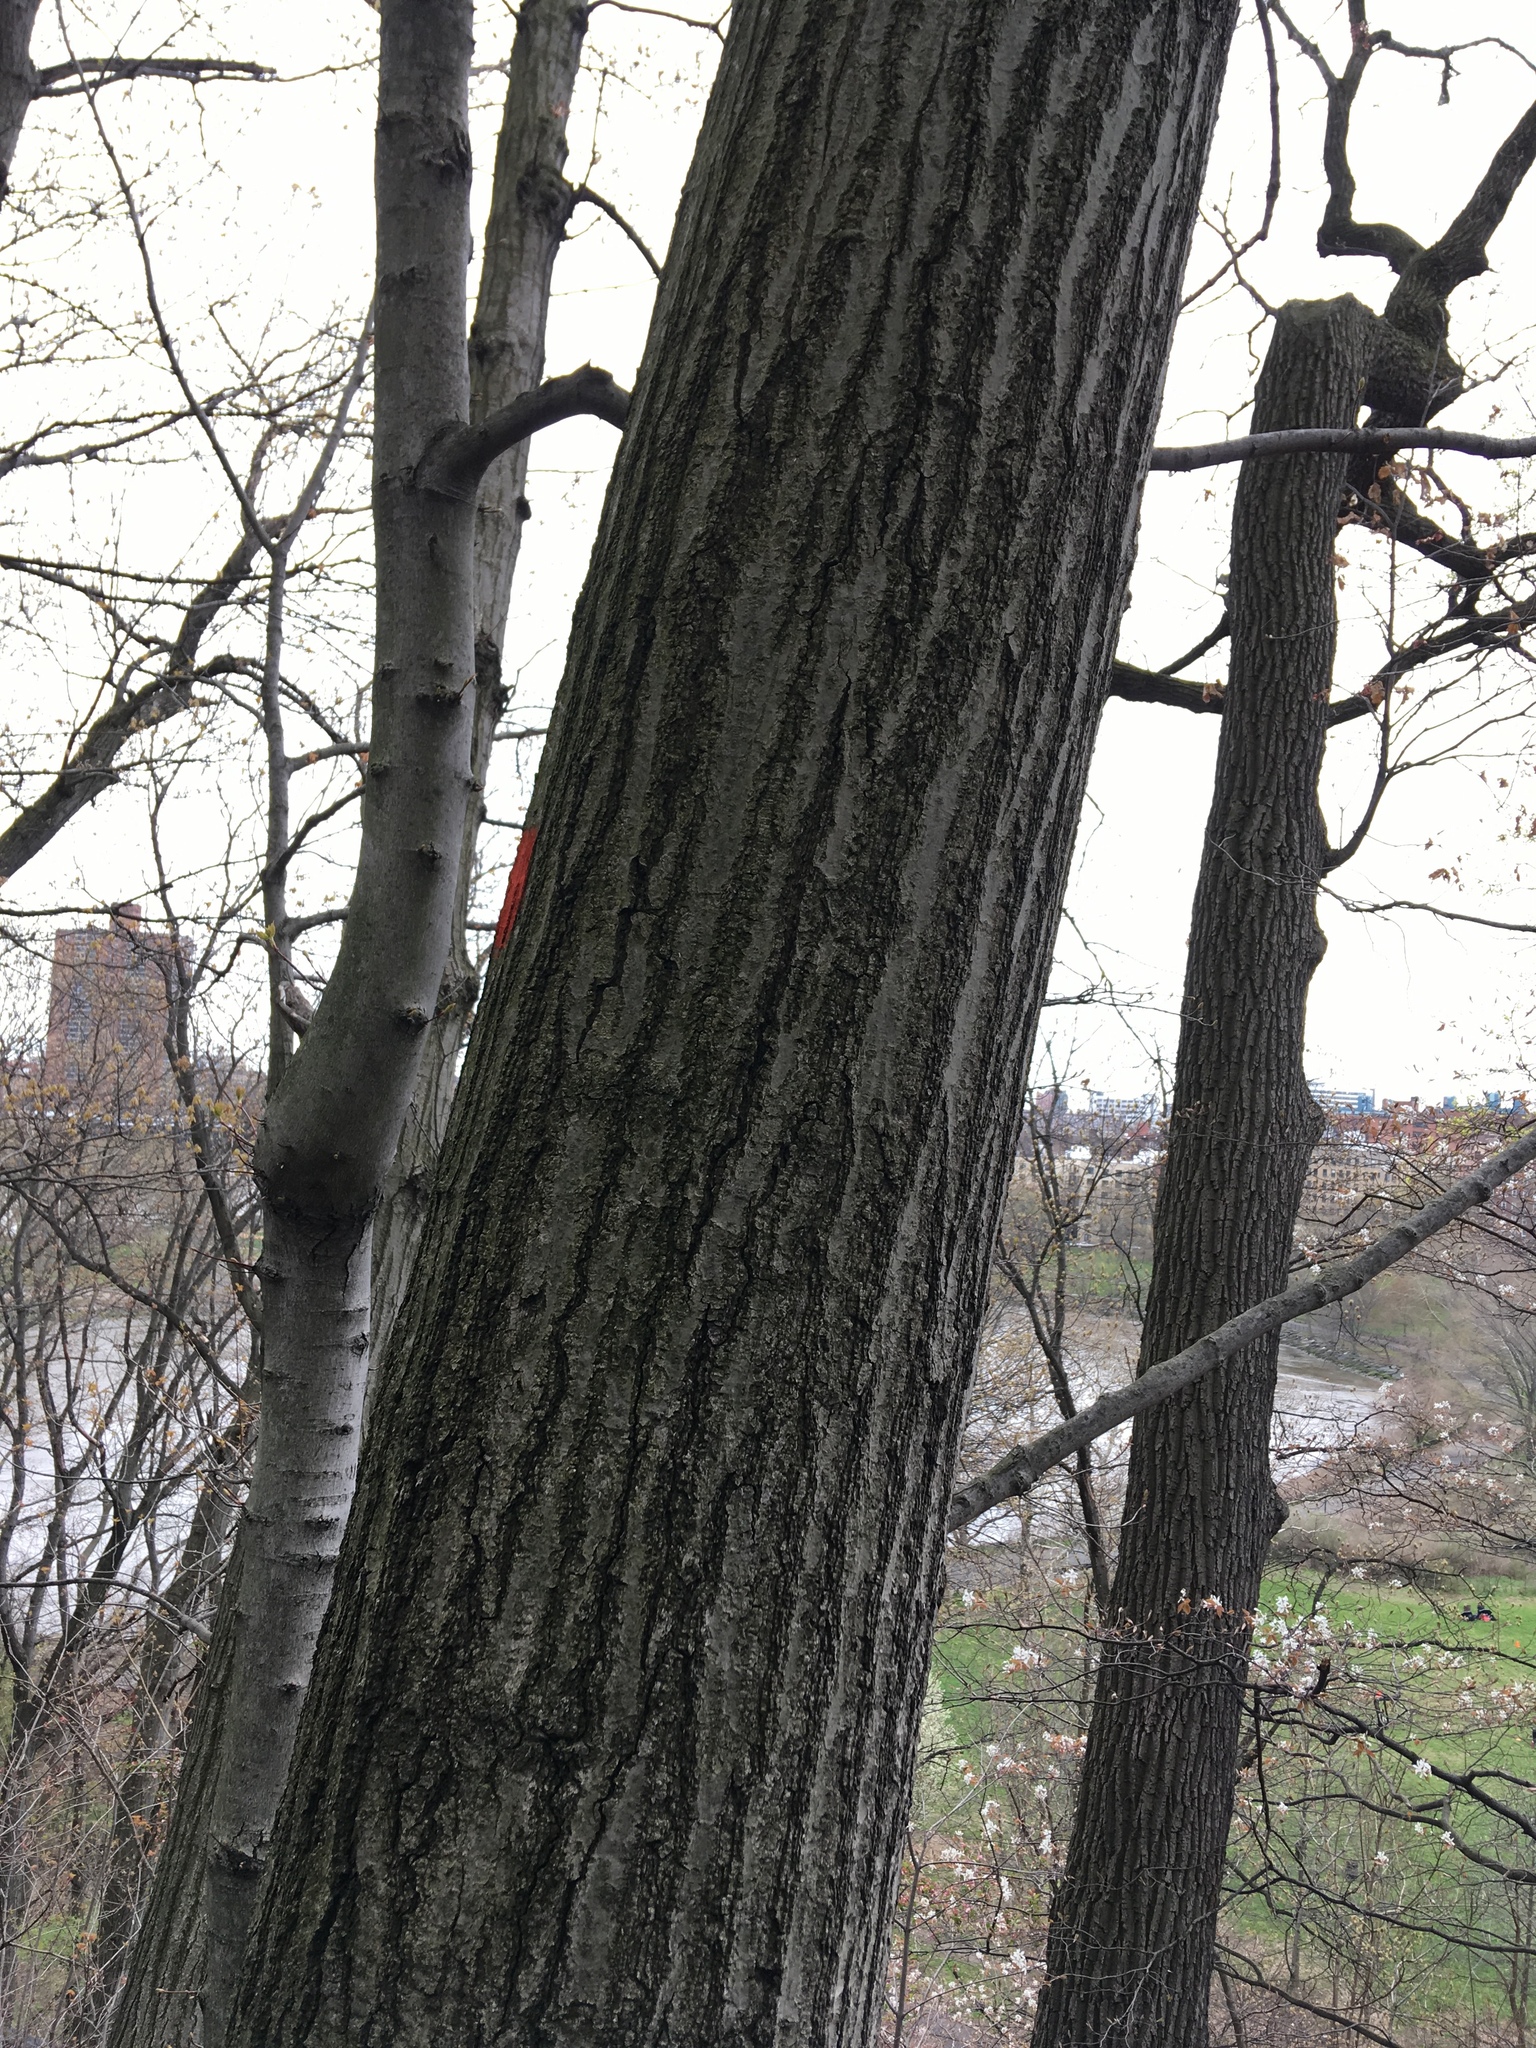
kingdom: Plantae
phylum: Tracheophyta
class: Magnoliopsida
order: Fagales
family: Fagaceae
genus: Quercus
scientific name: Quercus rubra
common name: Red oak
